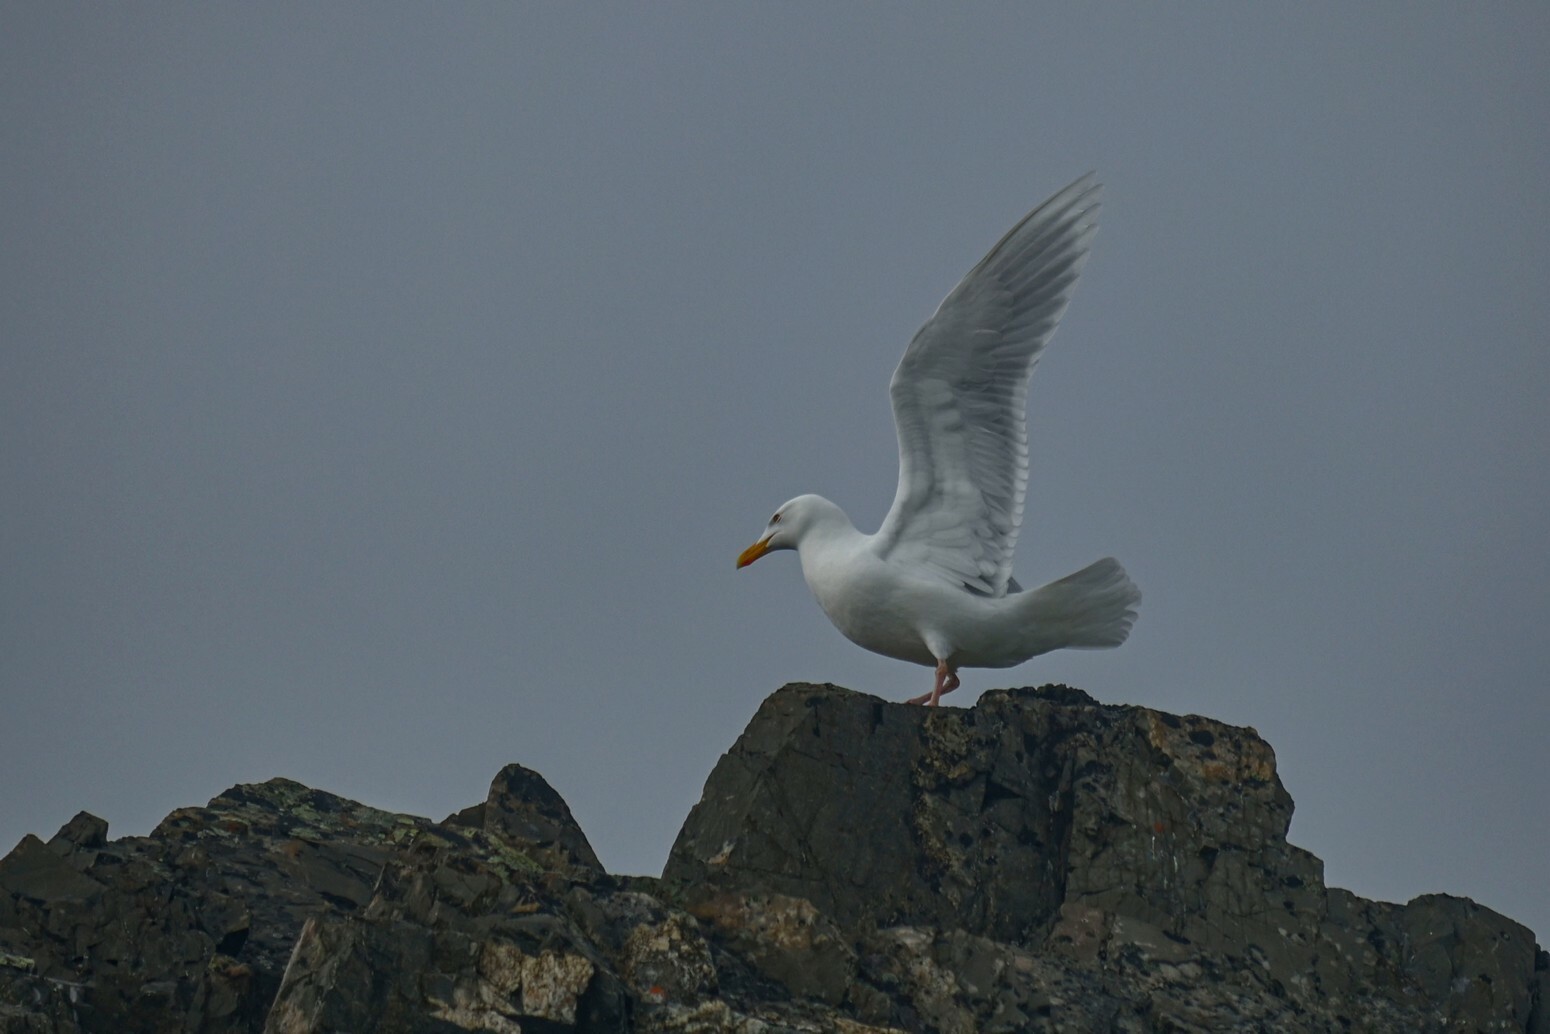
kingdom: Animalia
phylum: Chordata
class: Aves
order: Charadriiformes
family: Laridae
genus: Larus
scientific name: Larus hyperboreus
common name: Glaucous gull
